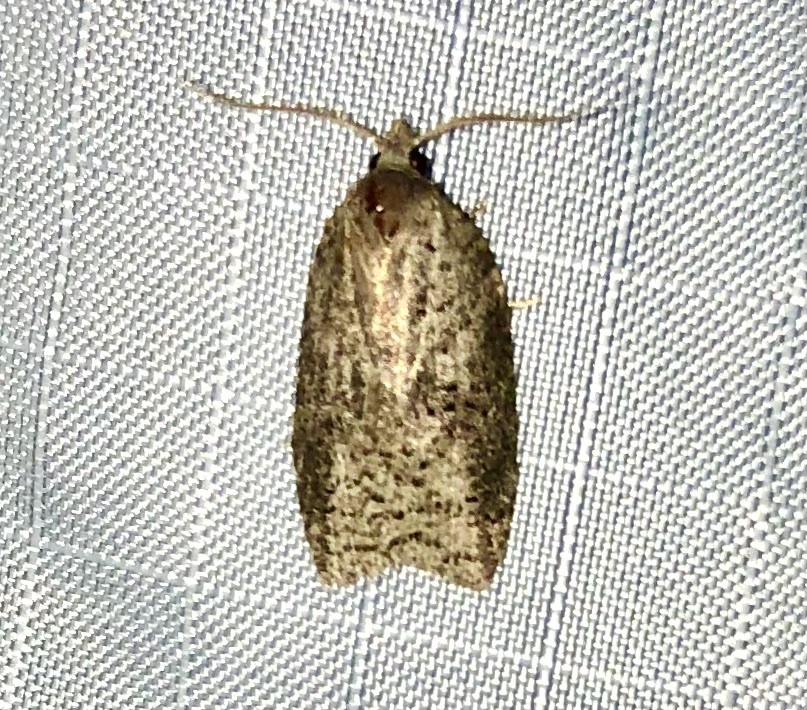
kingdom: Animalia
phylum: Arthropoda
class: Insecta
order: Lepidoptera
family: Tortricidae
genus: Amorbia
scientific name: Amorbia humerosana
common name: White-lined leafroller moth
